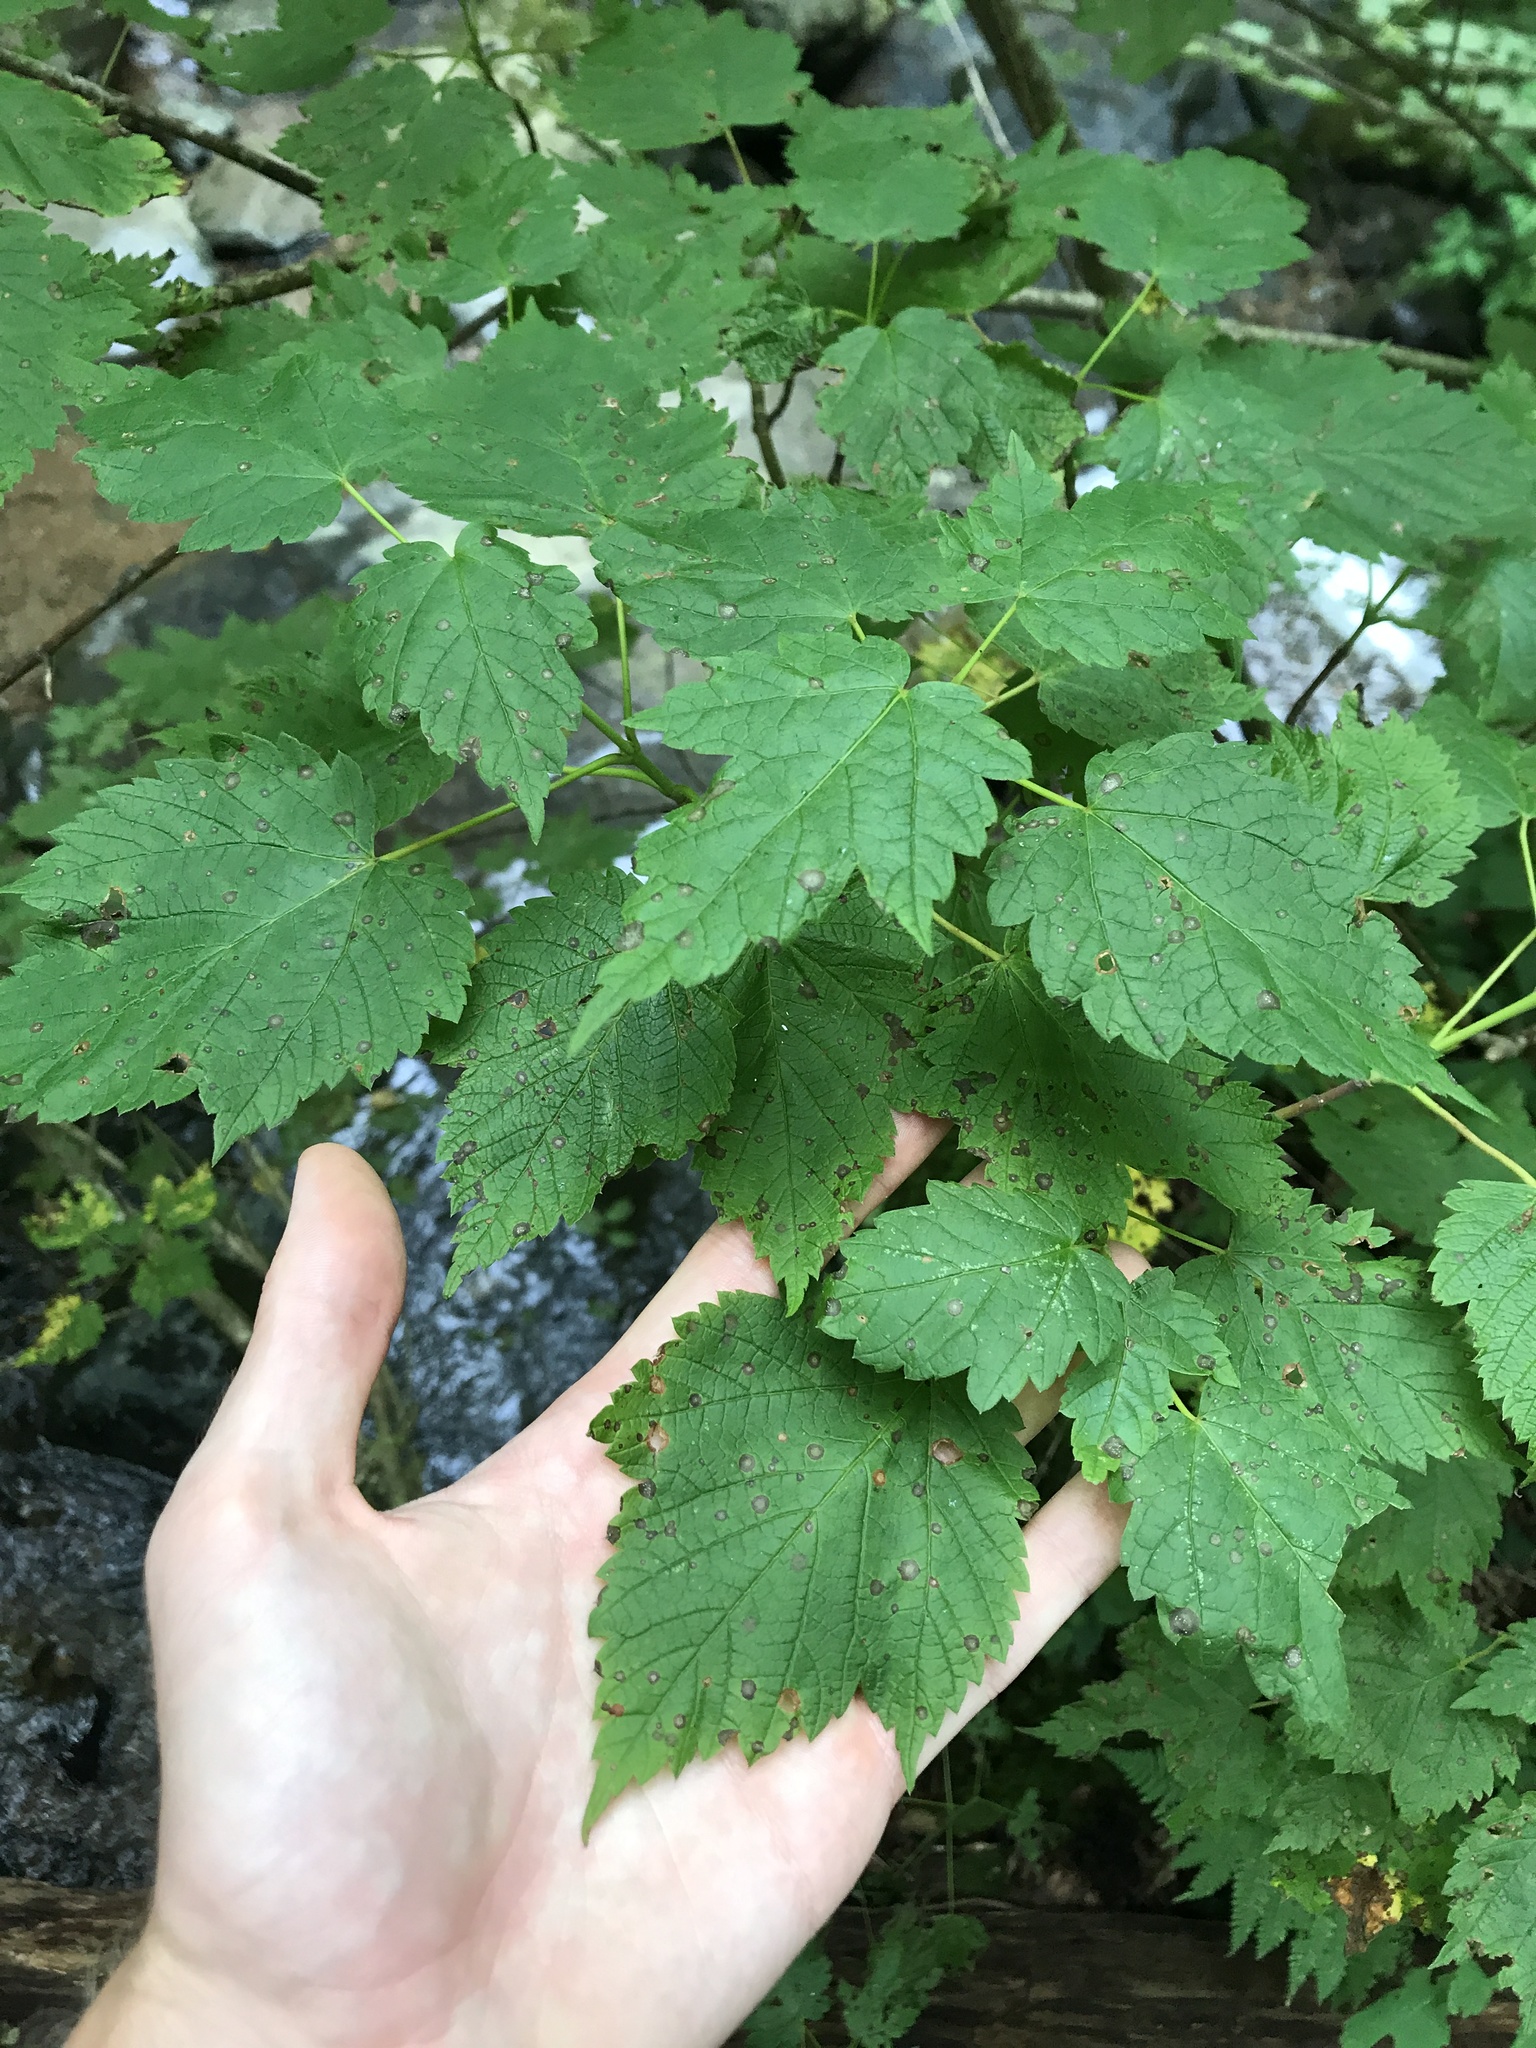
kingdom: Plantae
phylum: Tracheophyta
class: Magnoliopsida
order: Sapindales
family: Sapindaceae
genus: Acer
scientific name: Acer spicatum
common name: Mountain maple
